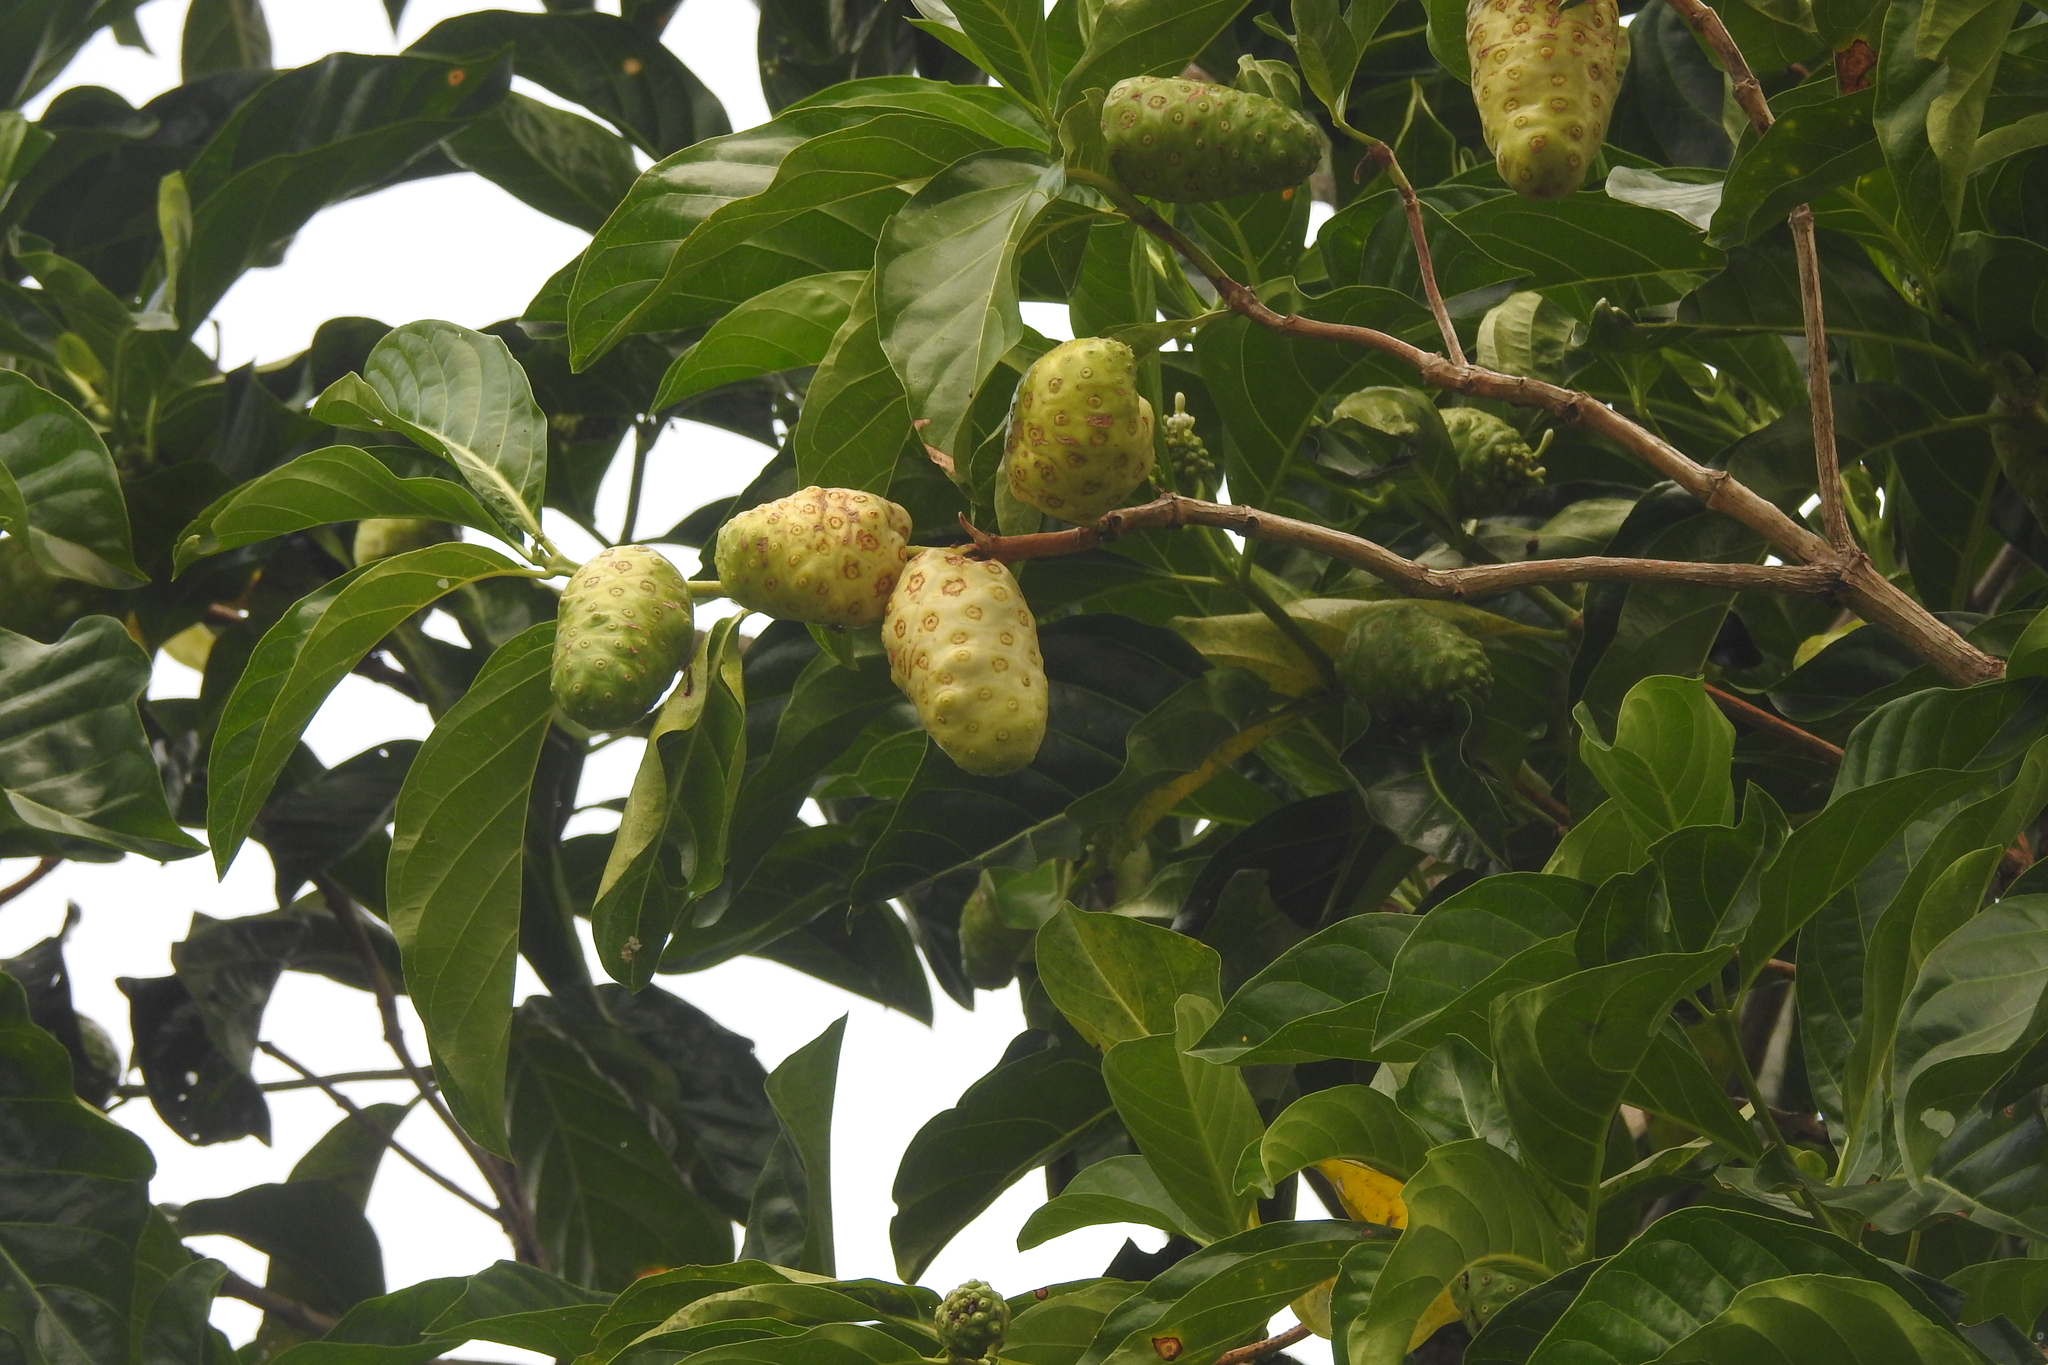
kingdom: Plantae
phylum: Tracheophyta
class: Magnoliopsida
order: Gentianales
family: Rubiaceae
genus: Morinda
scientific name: Morinda citrifolia
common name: Indian-mulberry
